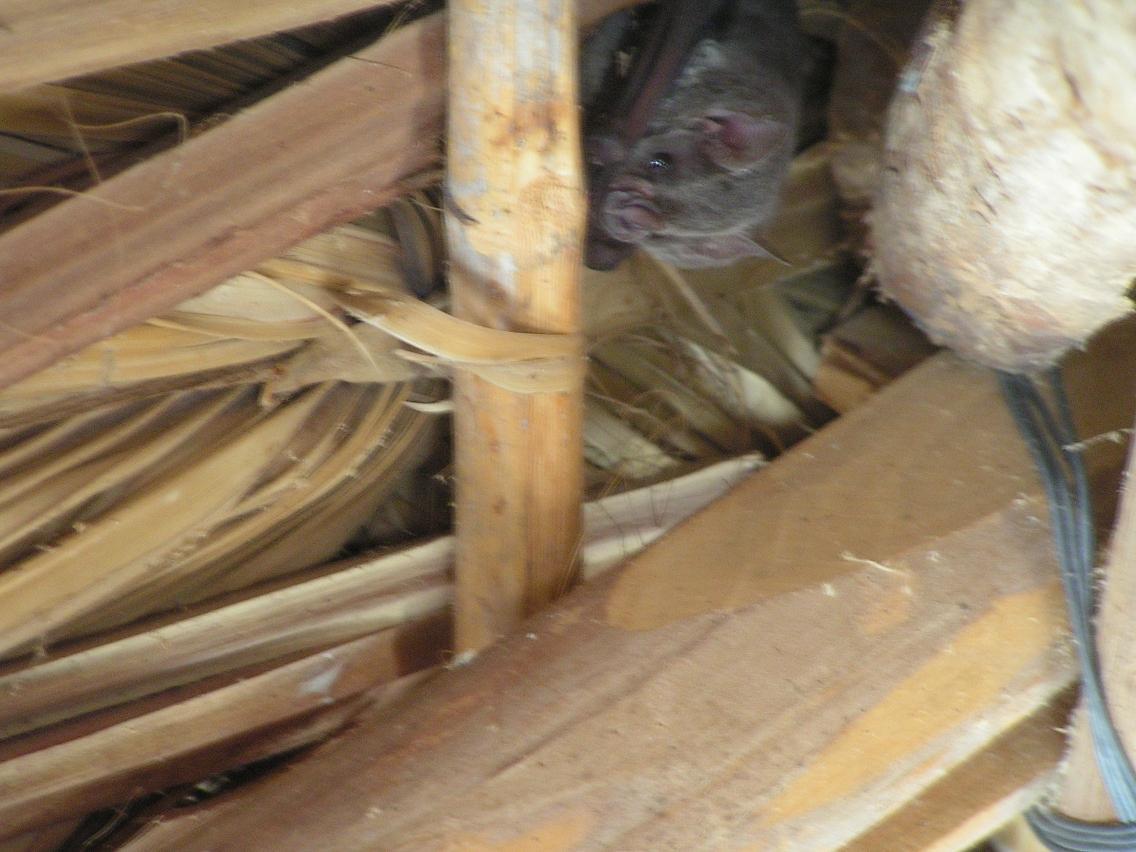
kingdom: Animalia
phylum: Chordata
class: Mammalia
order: Chiroptera
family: Phyllostomidae
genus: Artibeus
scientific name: Artibeus hirsutus
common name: Hairy fruit-eating bat
